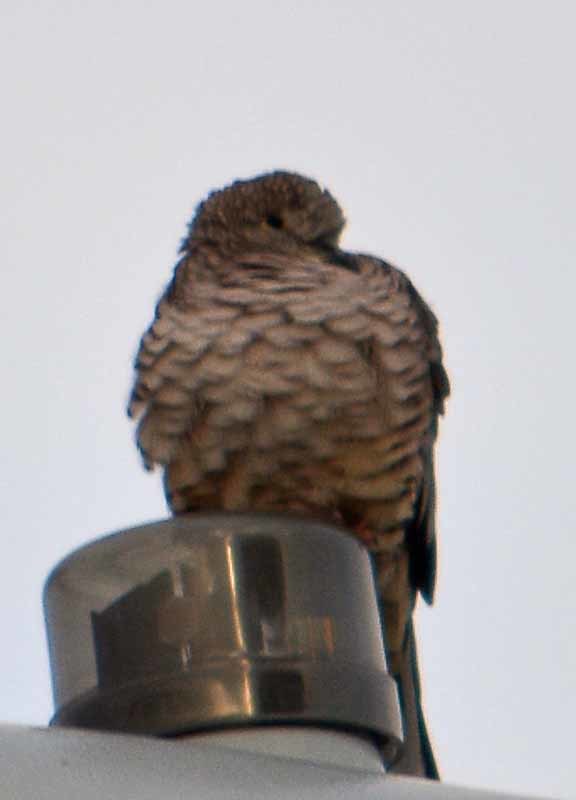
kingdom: Animalia
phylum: Chordata
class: Aves
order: Columbiformes
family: Columbidae
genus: Columbina
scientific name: Columbina inca
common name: Inca dove
